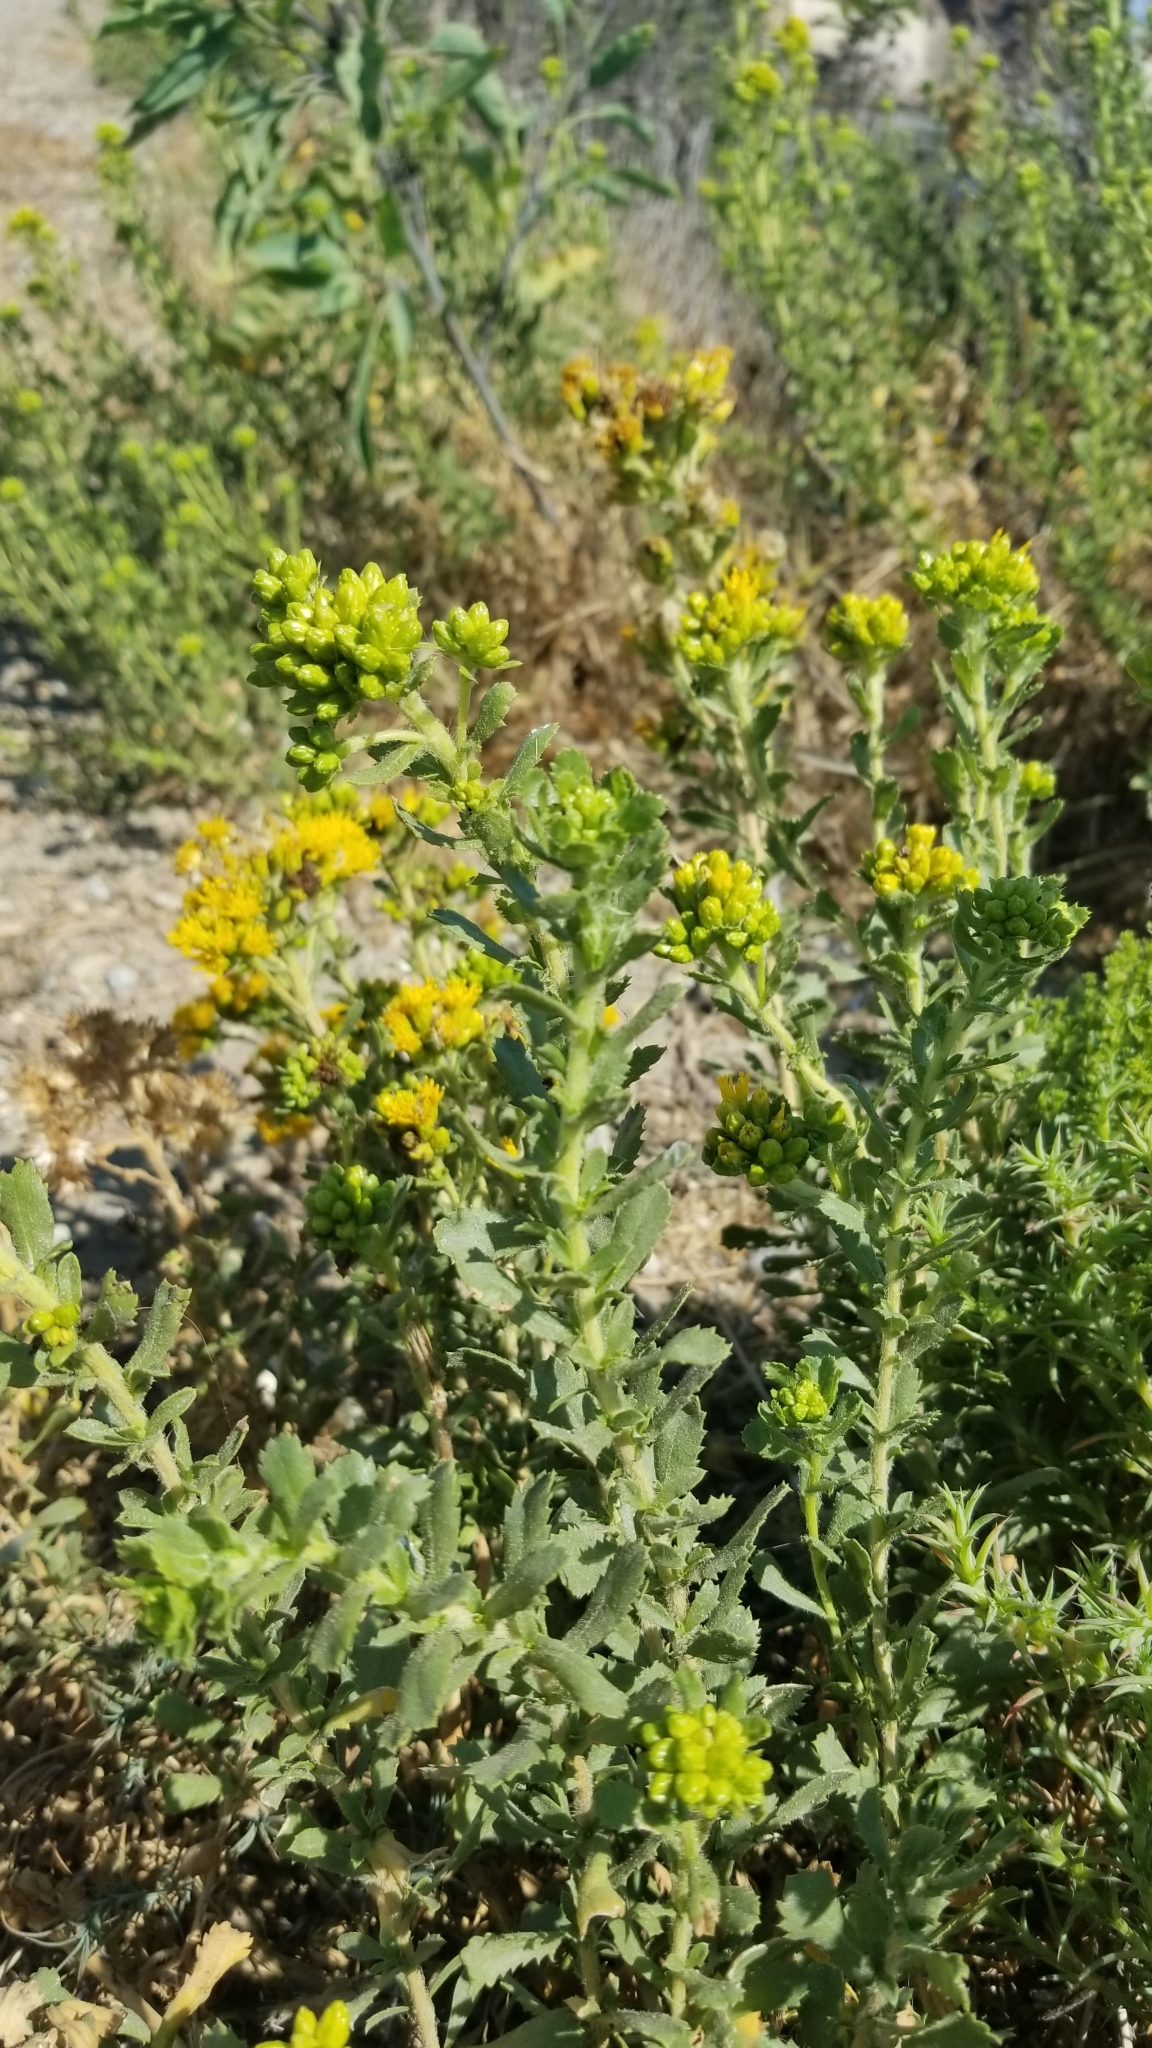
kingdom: Plantae
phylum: Tracheophyta
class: Magnoliopsida
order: Asterales
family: Asteraceae
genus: Isocoma
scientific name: Isocoma menziesii
